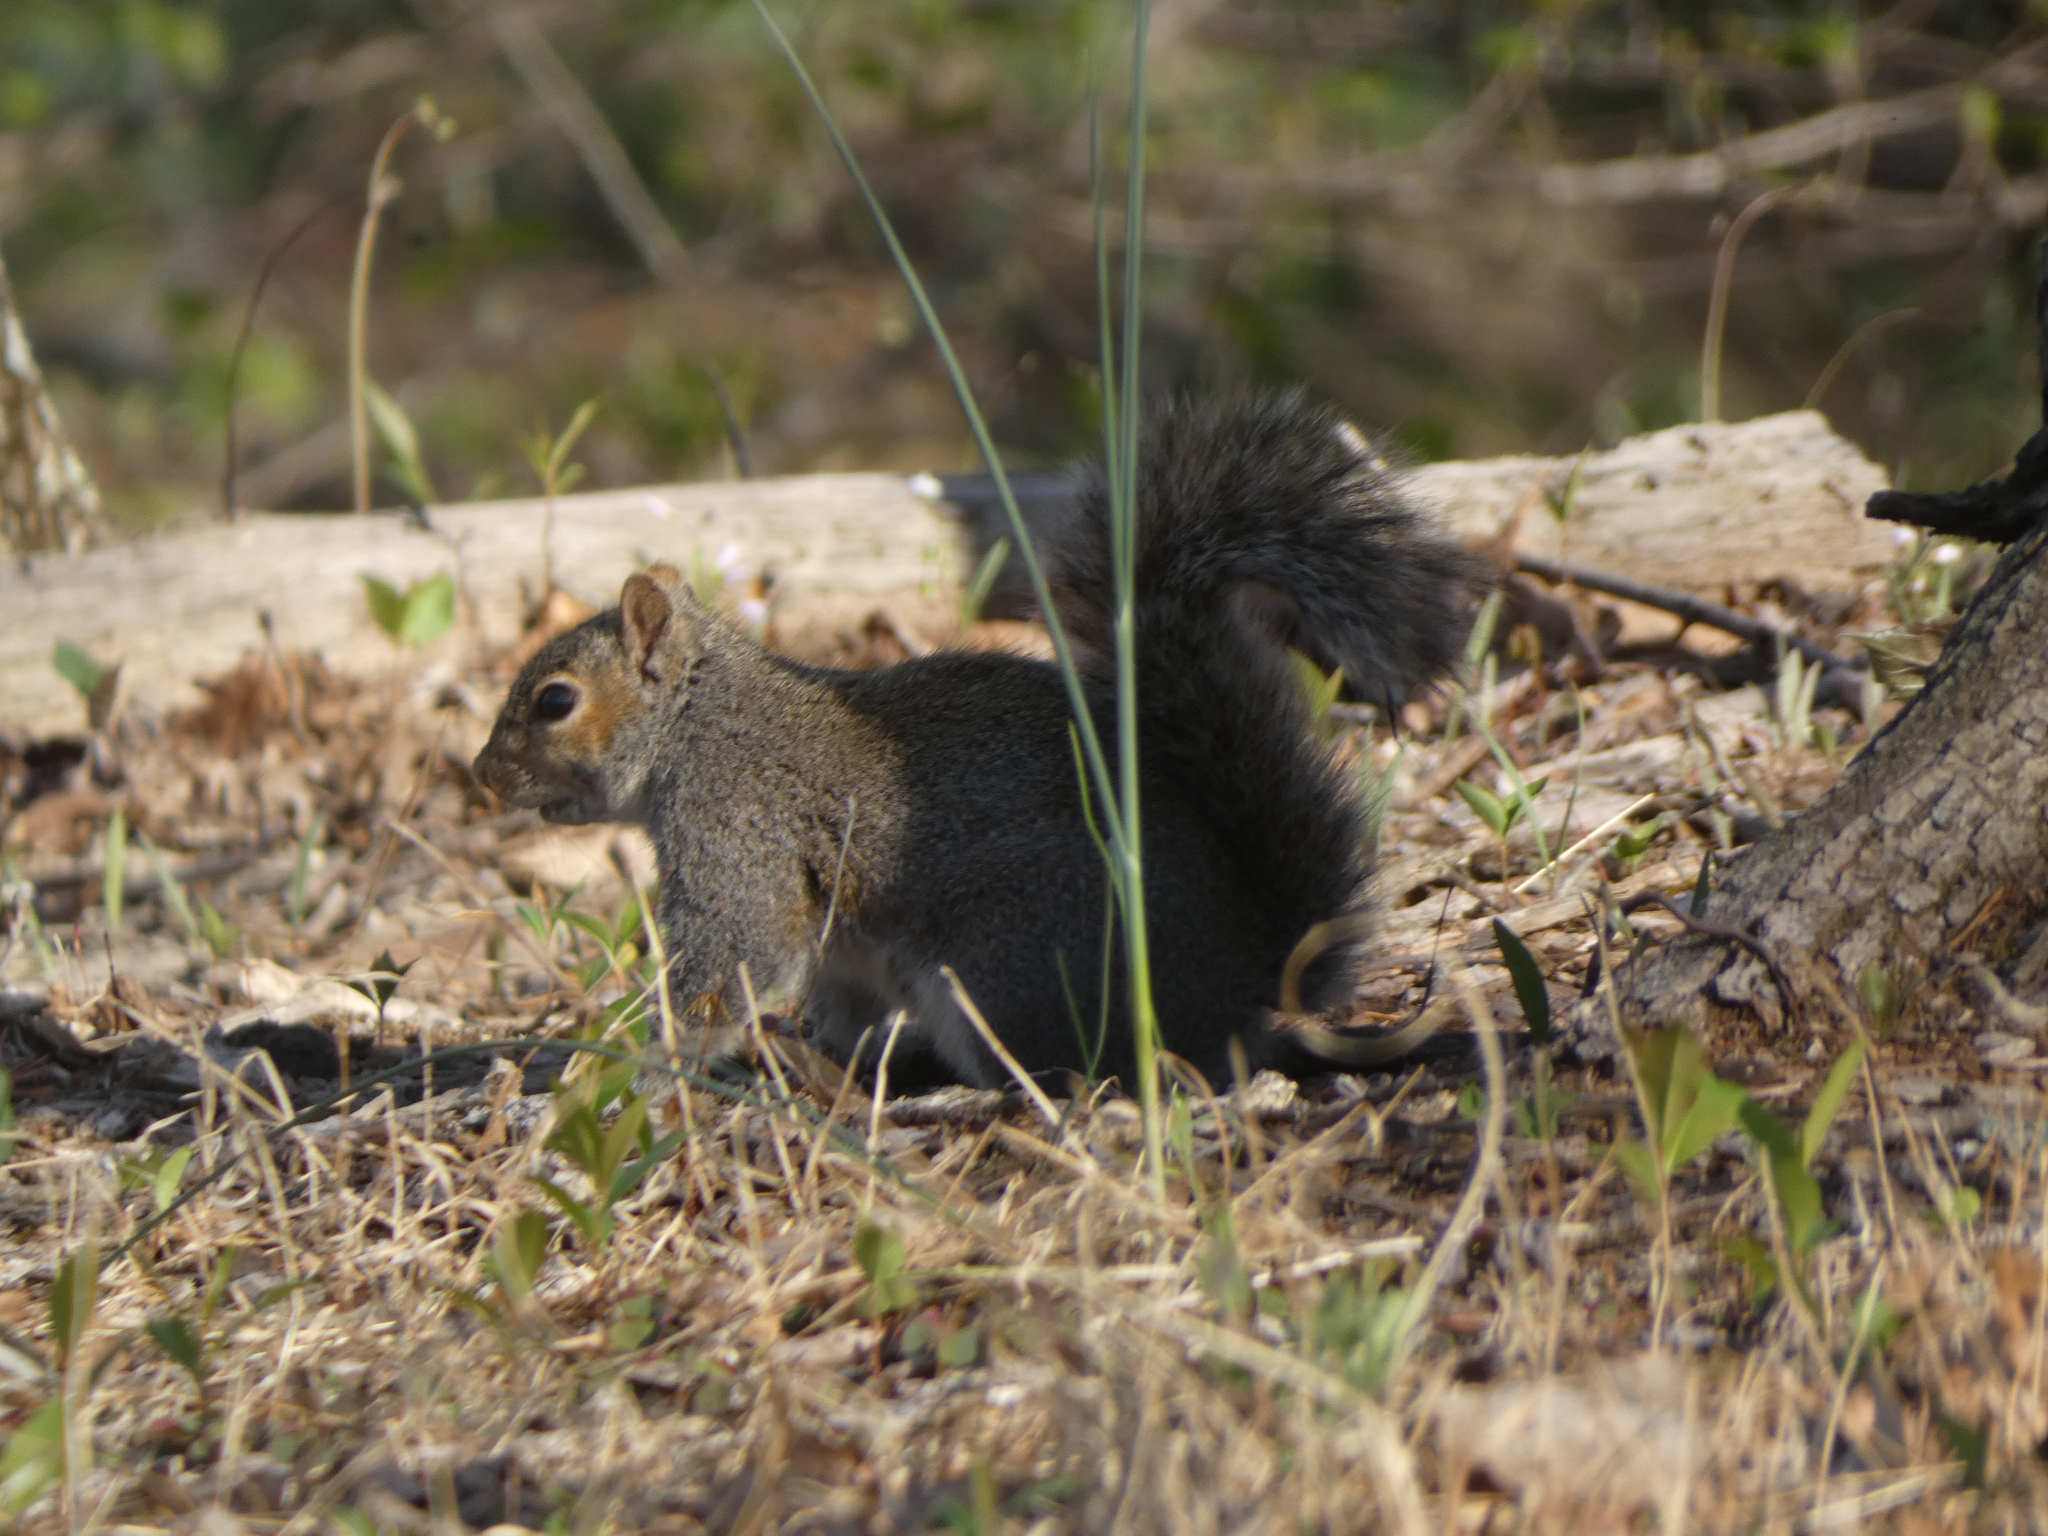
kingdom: Animalia
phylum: Chordata
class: Mammalia
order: Rodentia
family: Sciuridae
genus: Sciurus
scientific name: Sciurus carolinensis
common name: Eastern gray squirrel
